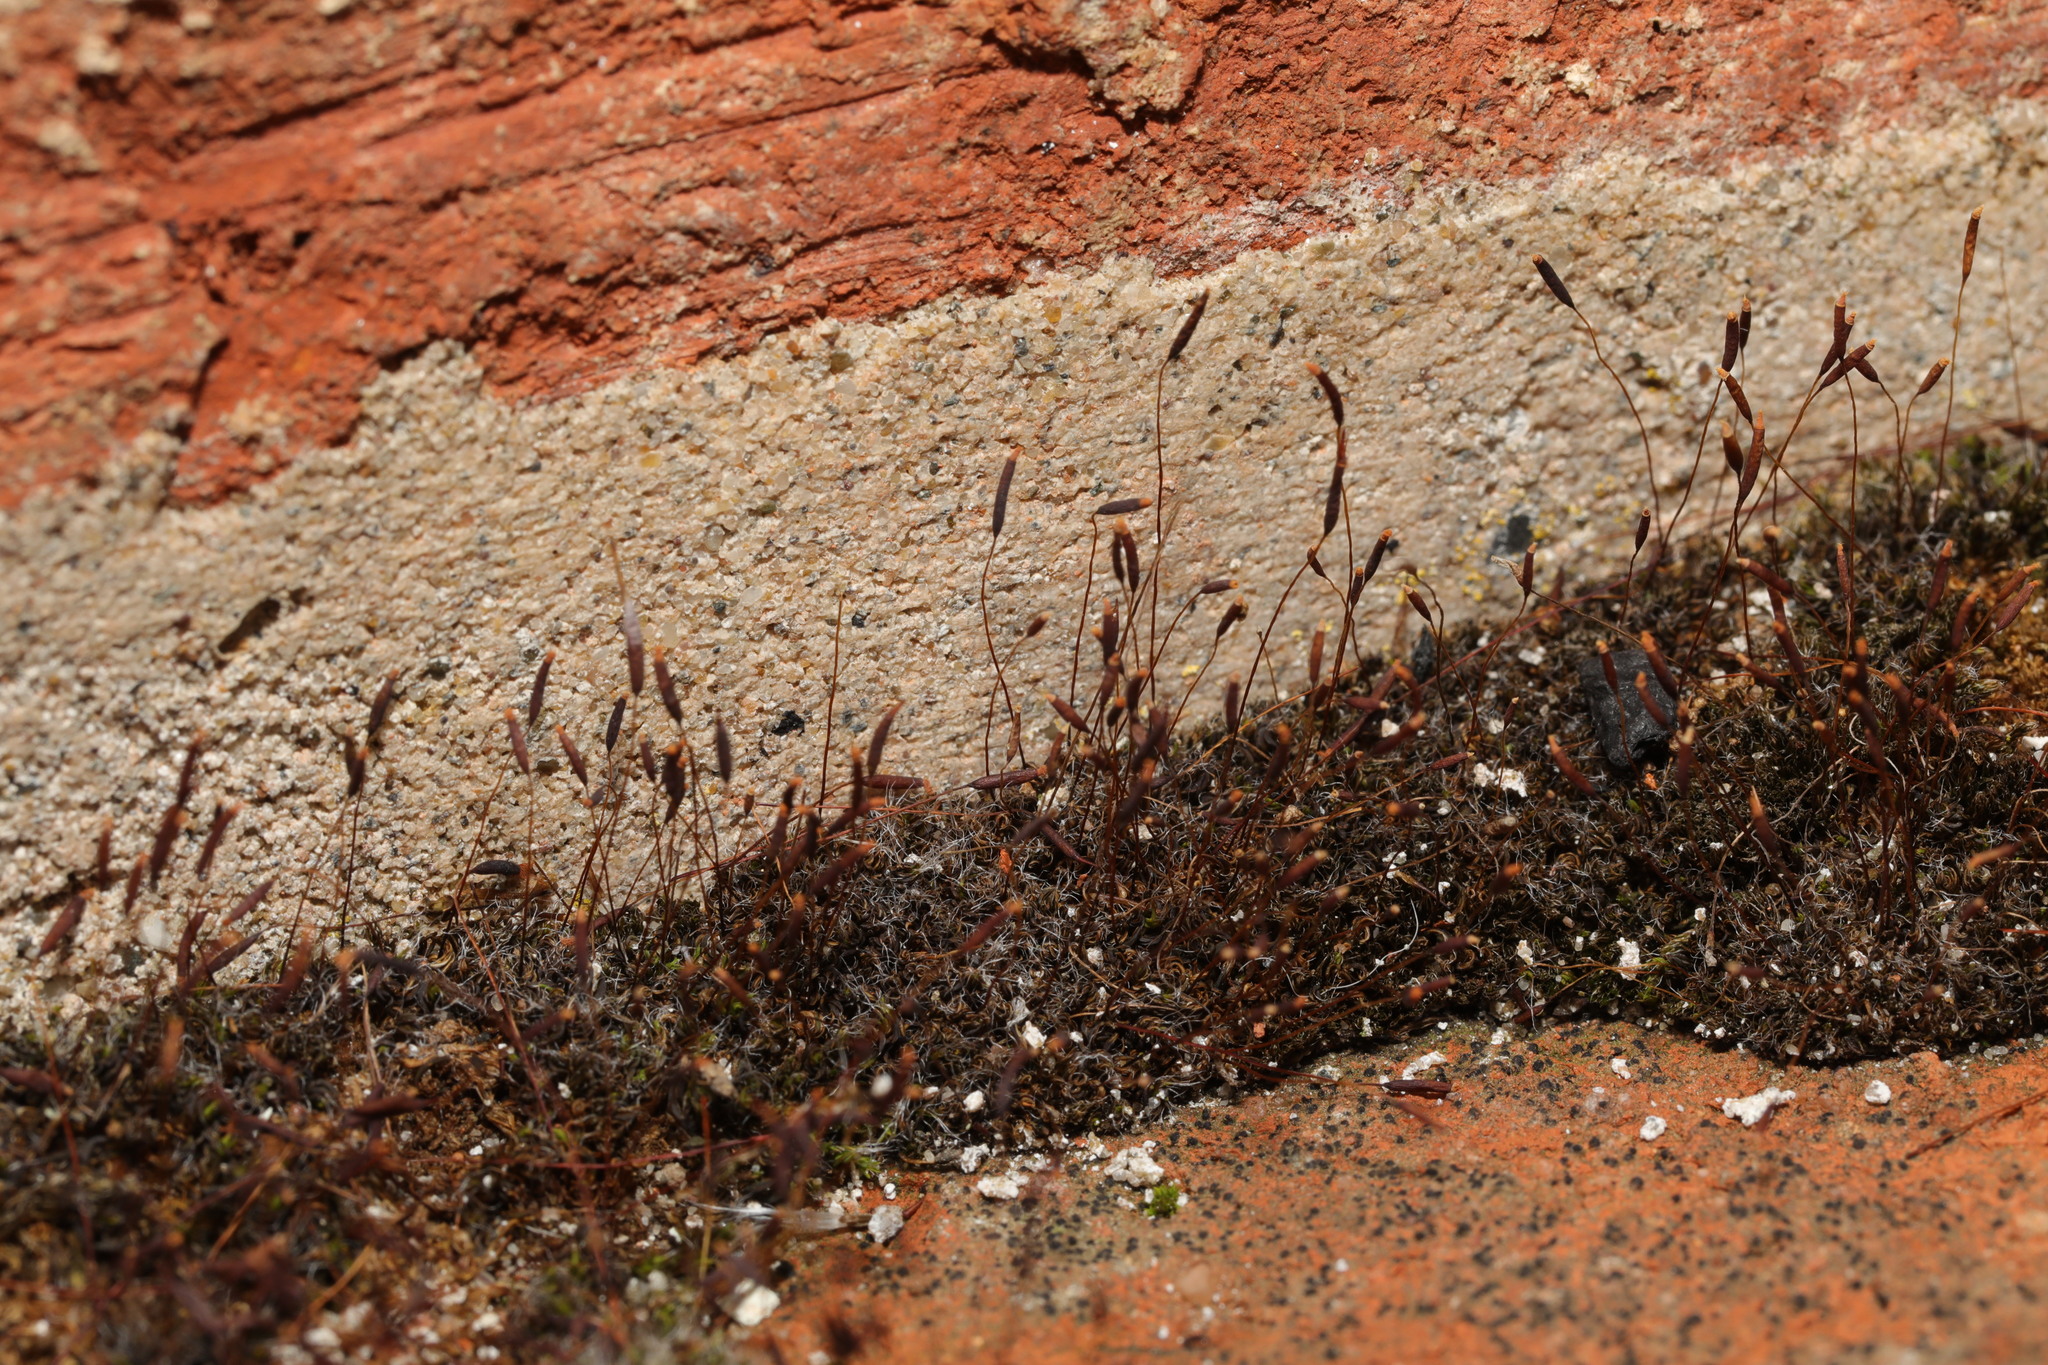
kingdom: Plantae
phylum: Bryophyta
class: Bryopsida
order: Pottiales
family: Pottiaceae
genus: Tortula
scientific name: Tortula muralis
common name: Wall screw-moss
